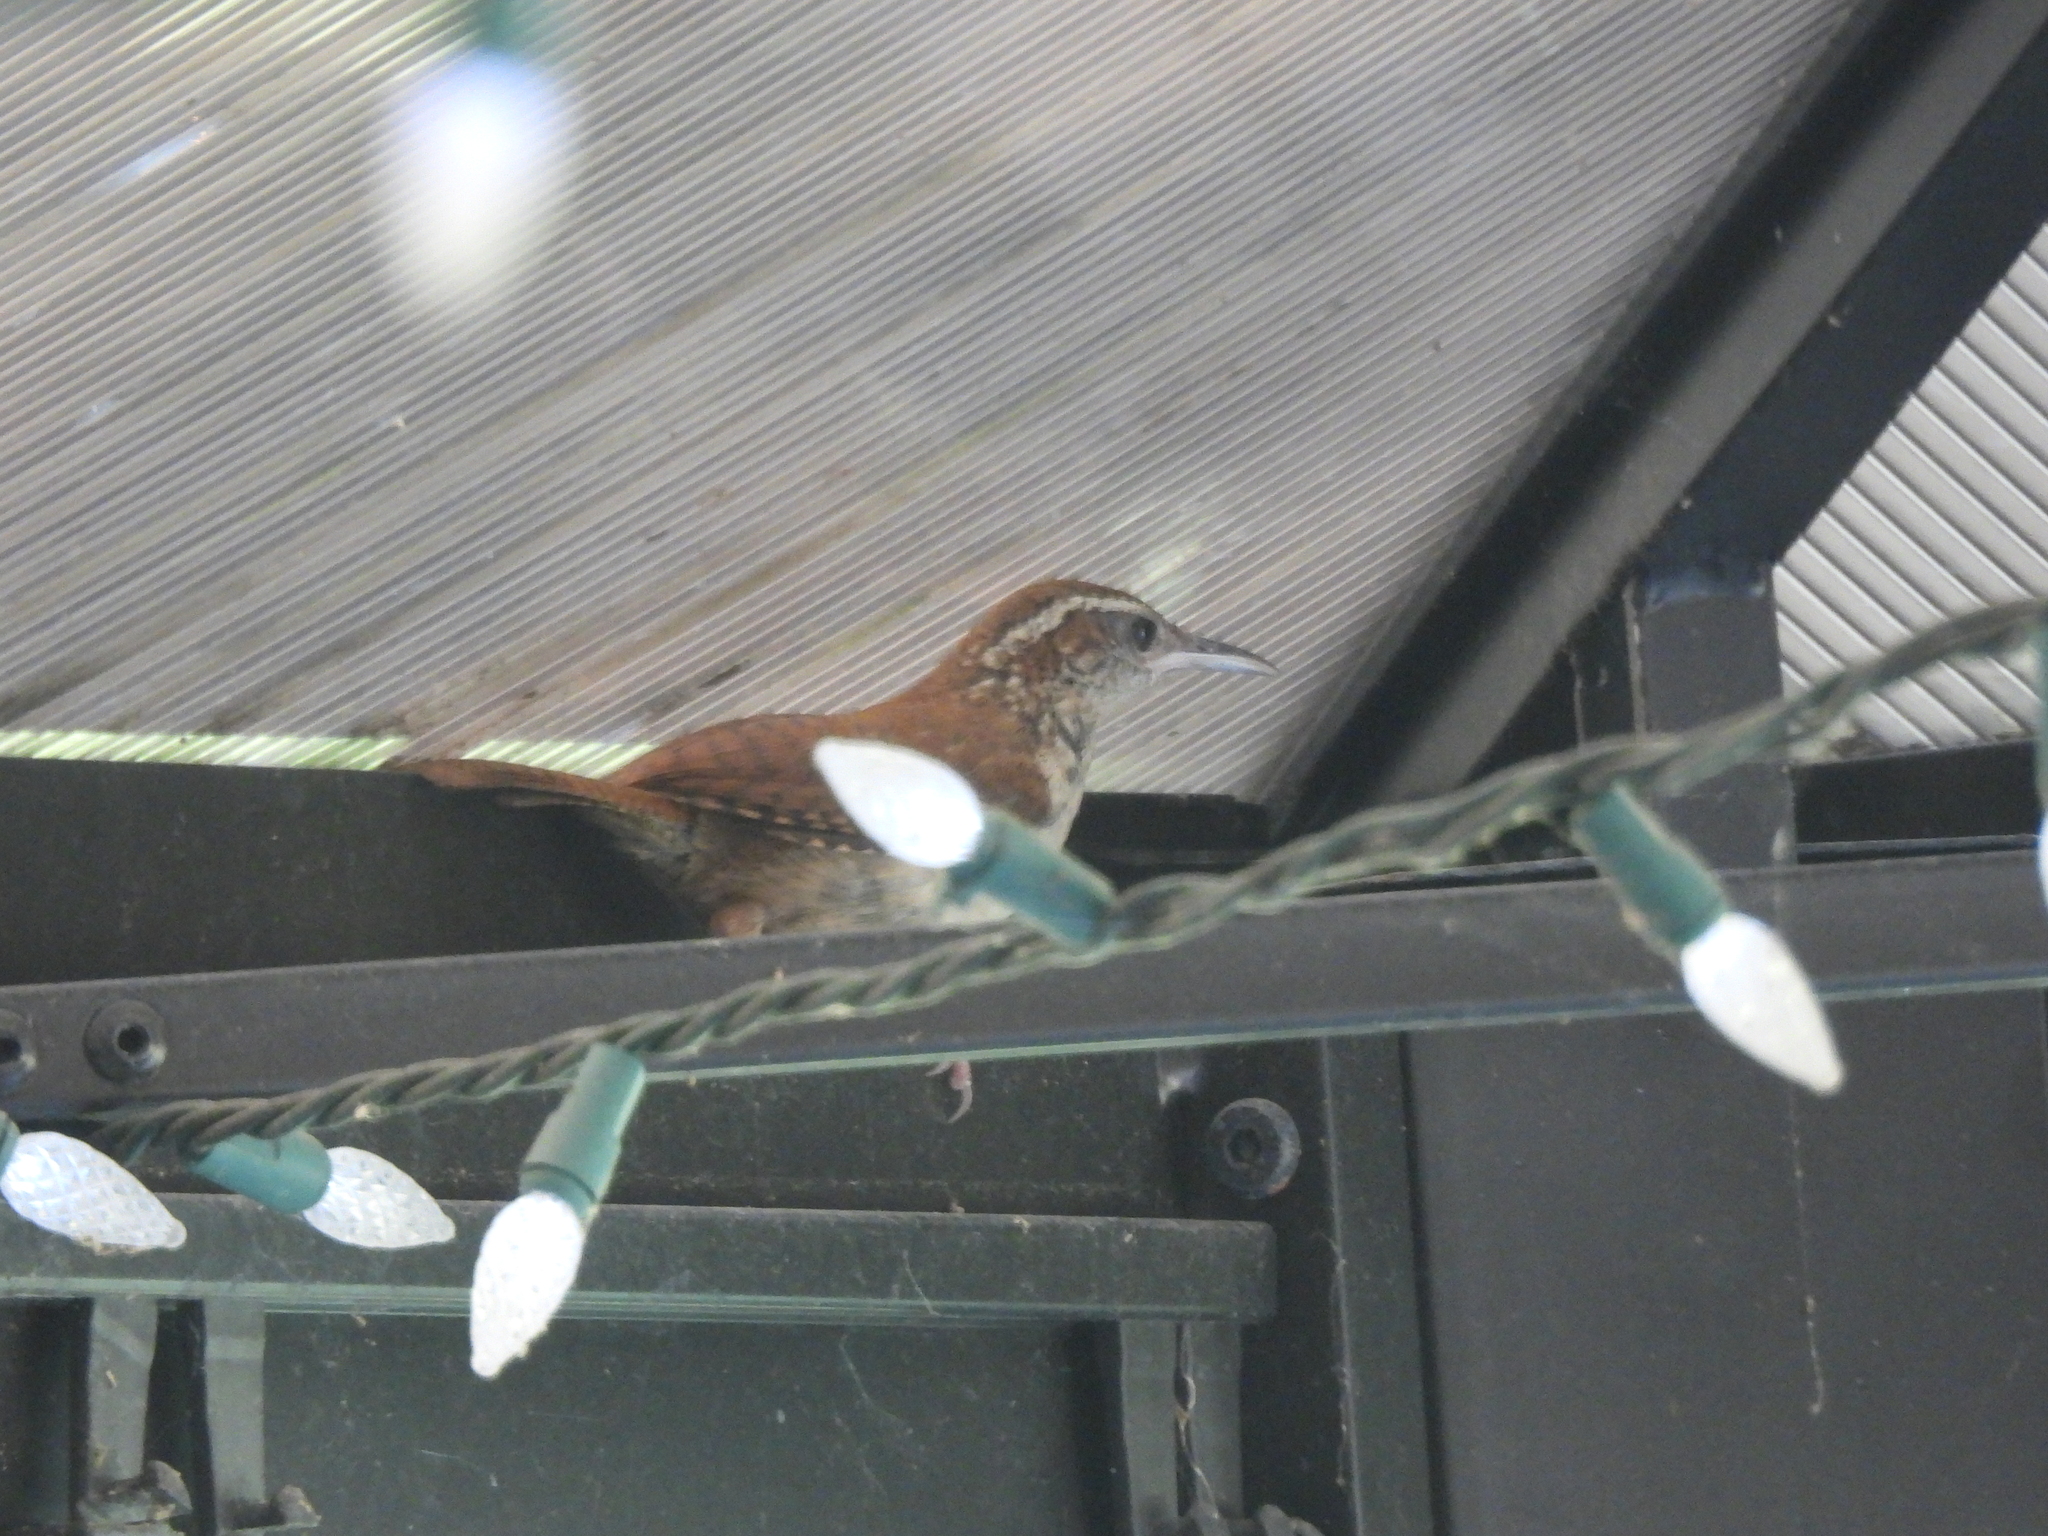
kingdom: Animalia
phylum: Chordata
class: Aves
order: Passeriformes
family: Troglodytidae
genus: Thryothorus
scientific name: Thryothorus ludovicianus
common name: Carolina wren
